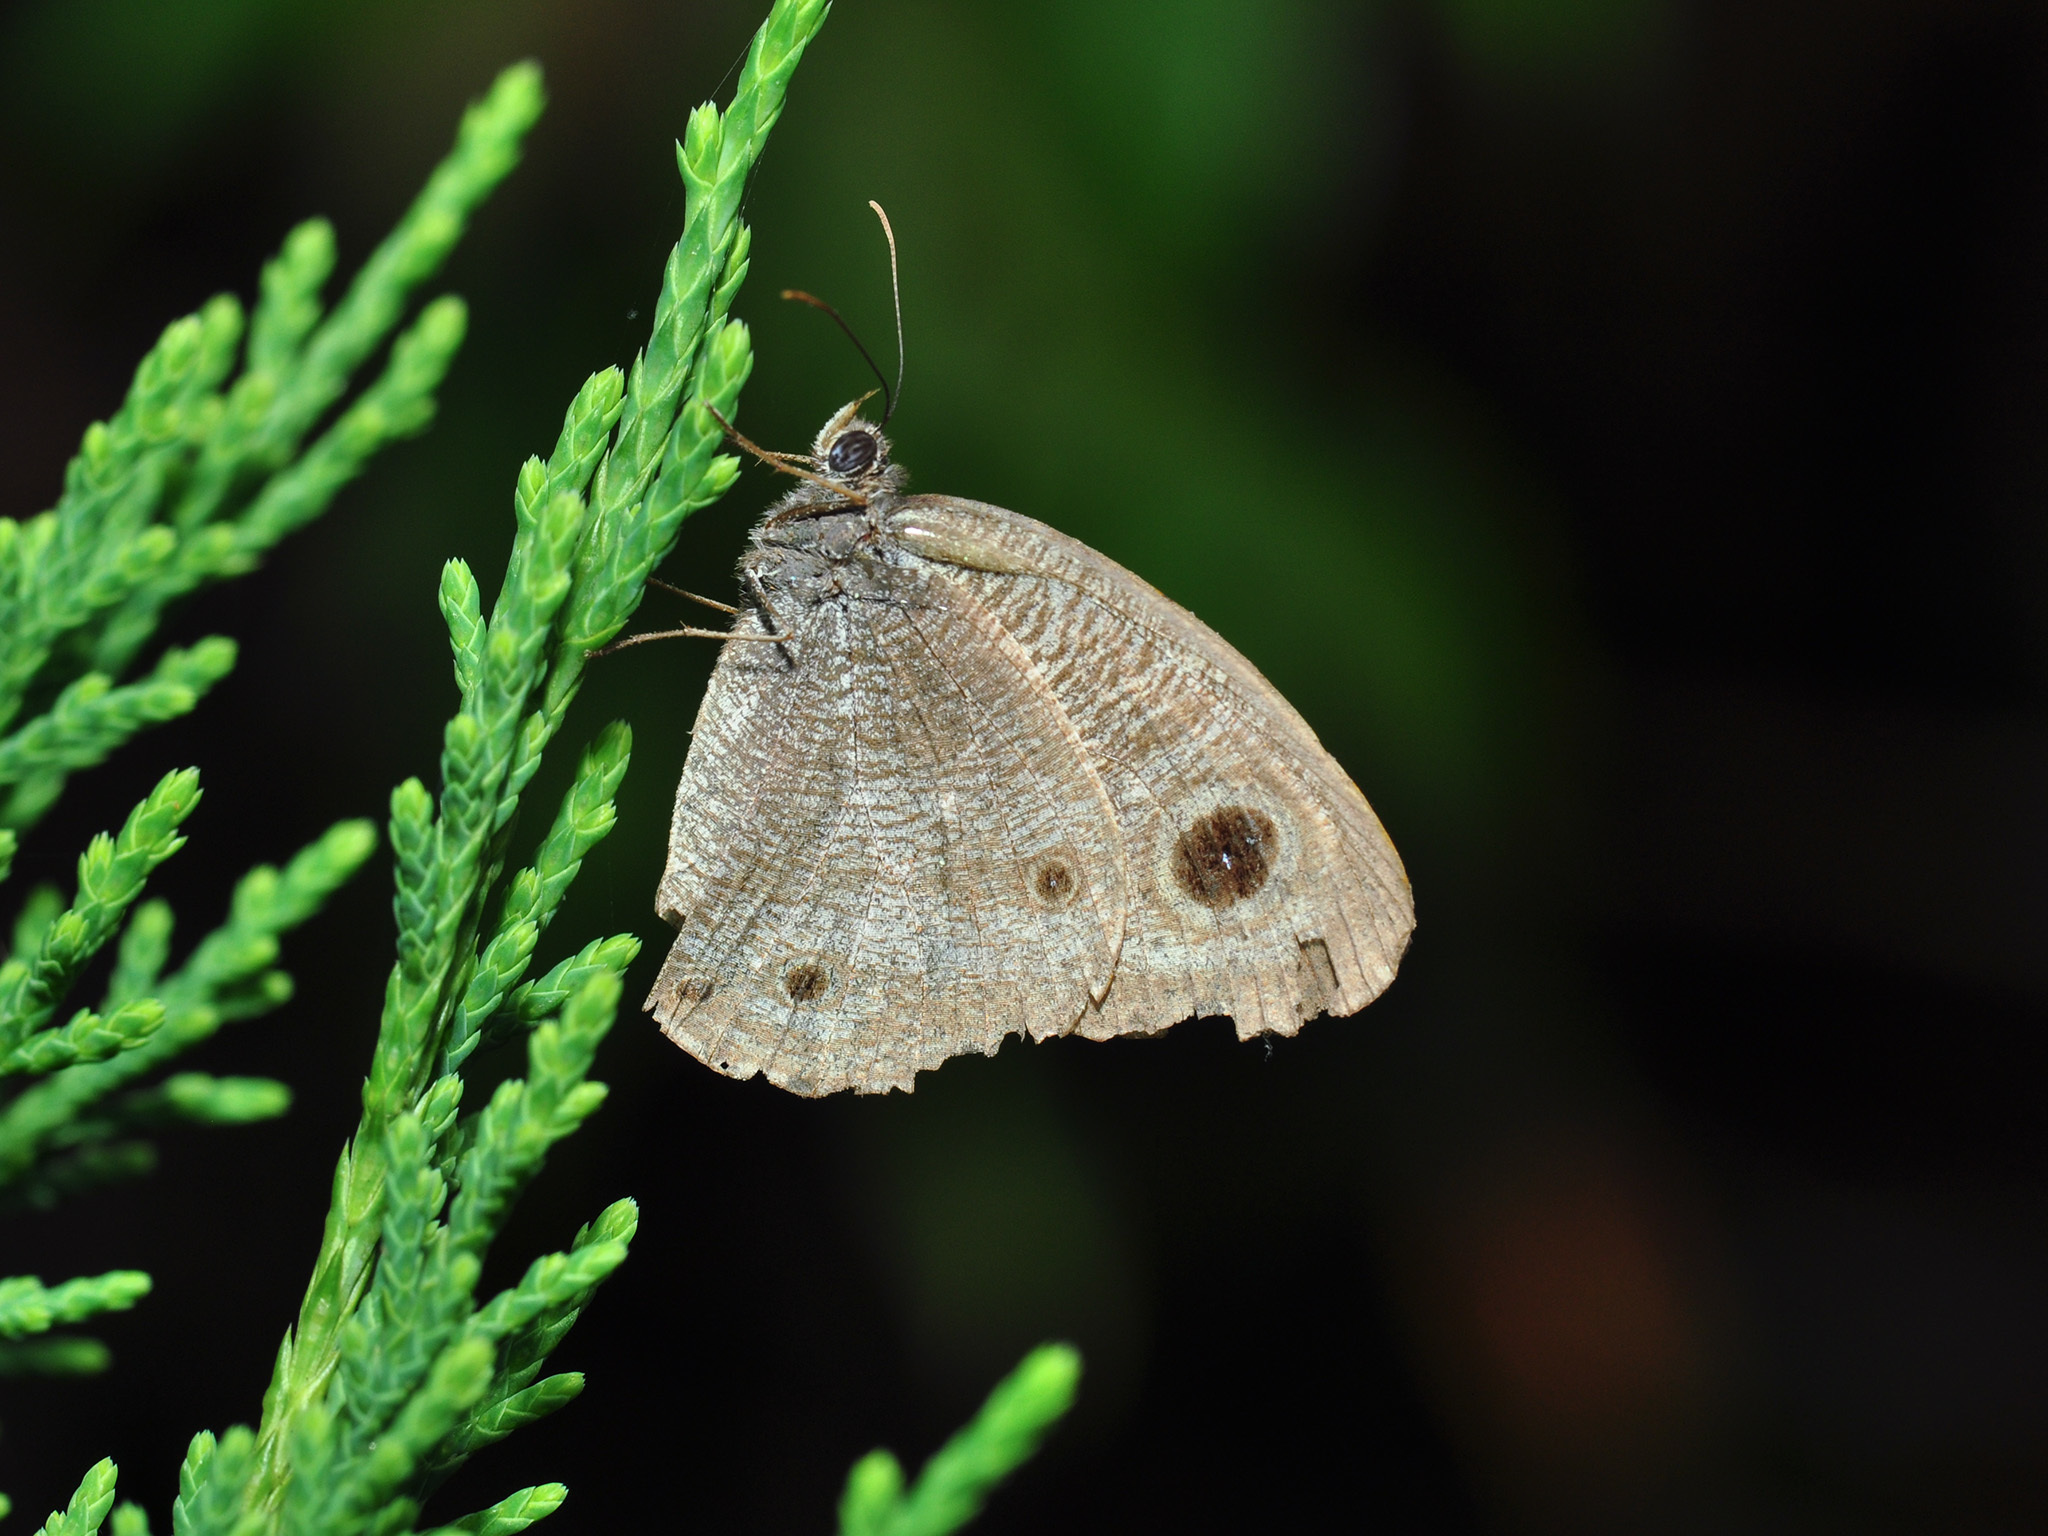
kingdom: Animalia
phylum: Arthropoda
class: Insecta
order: Lepidoptera
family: Nymphalidae
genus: Ypthima
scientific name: Ypthima pandocus
